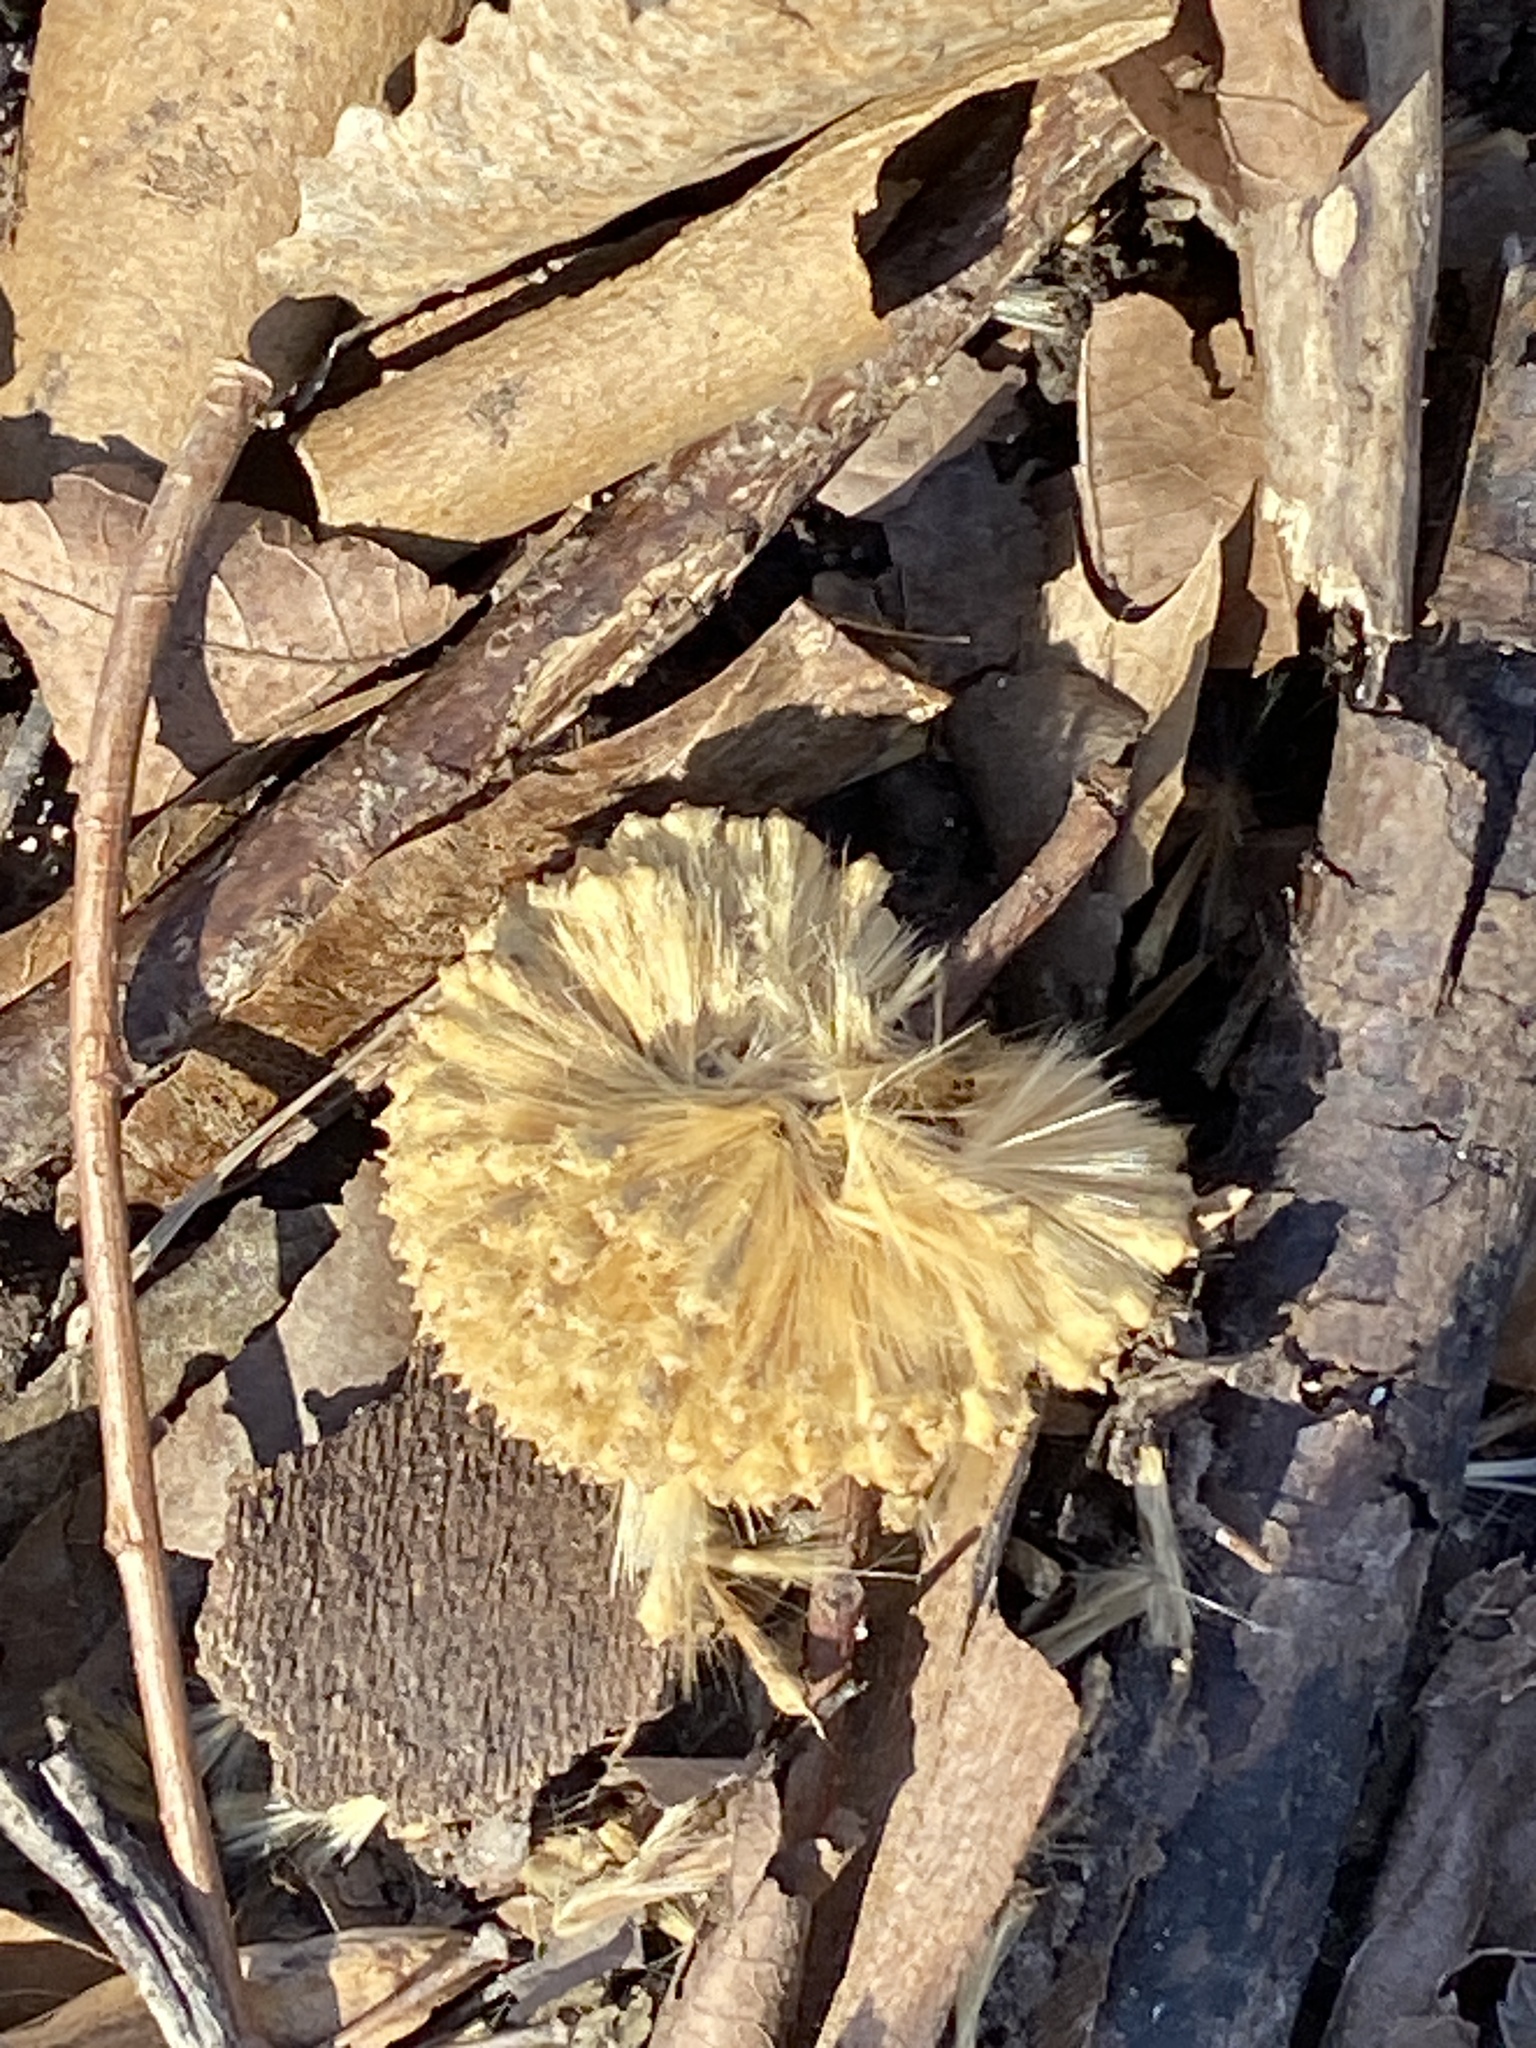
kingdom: Plantae
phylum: Tracheophyta
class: Magnoliopsida
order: Proteales
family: Platanaceae
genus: Platanus
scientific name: Platanus occidentalis
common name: American sycamore
